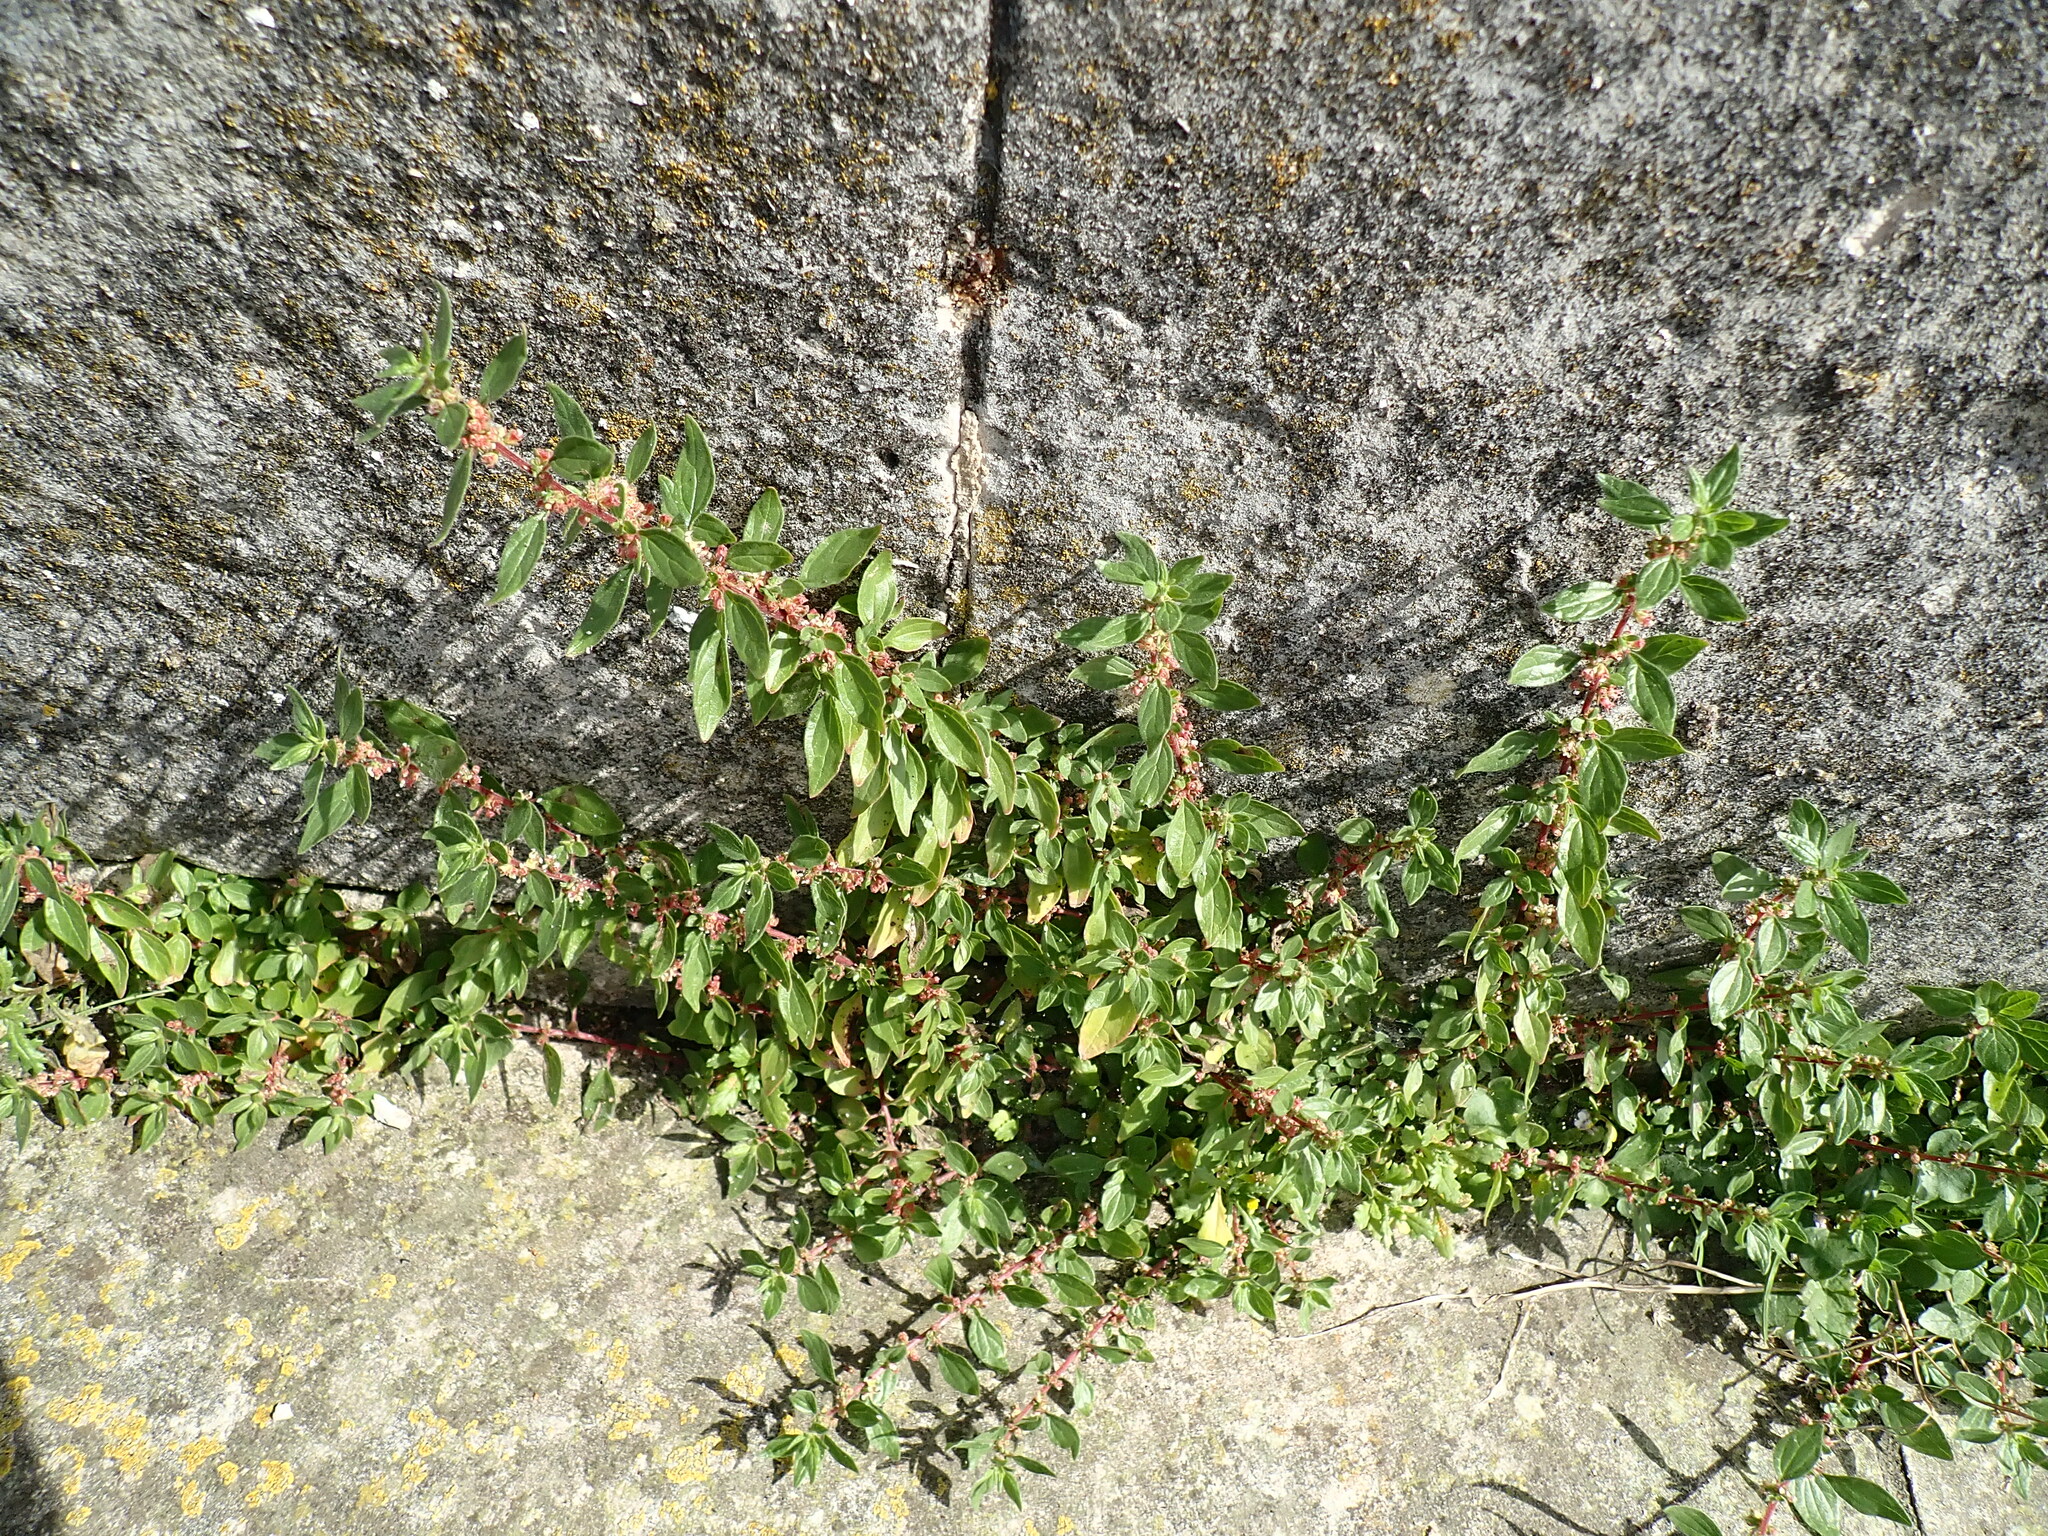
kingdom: Plantae
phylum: Tracheophyta
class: Magnoliopsida
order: Rosales
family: Urticaceae
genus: Parietaria
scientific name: Parietaria judaica
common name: Pellitory-of-the-wall
